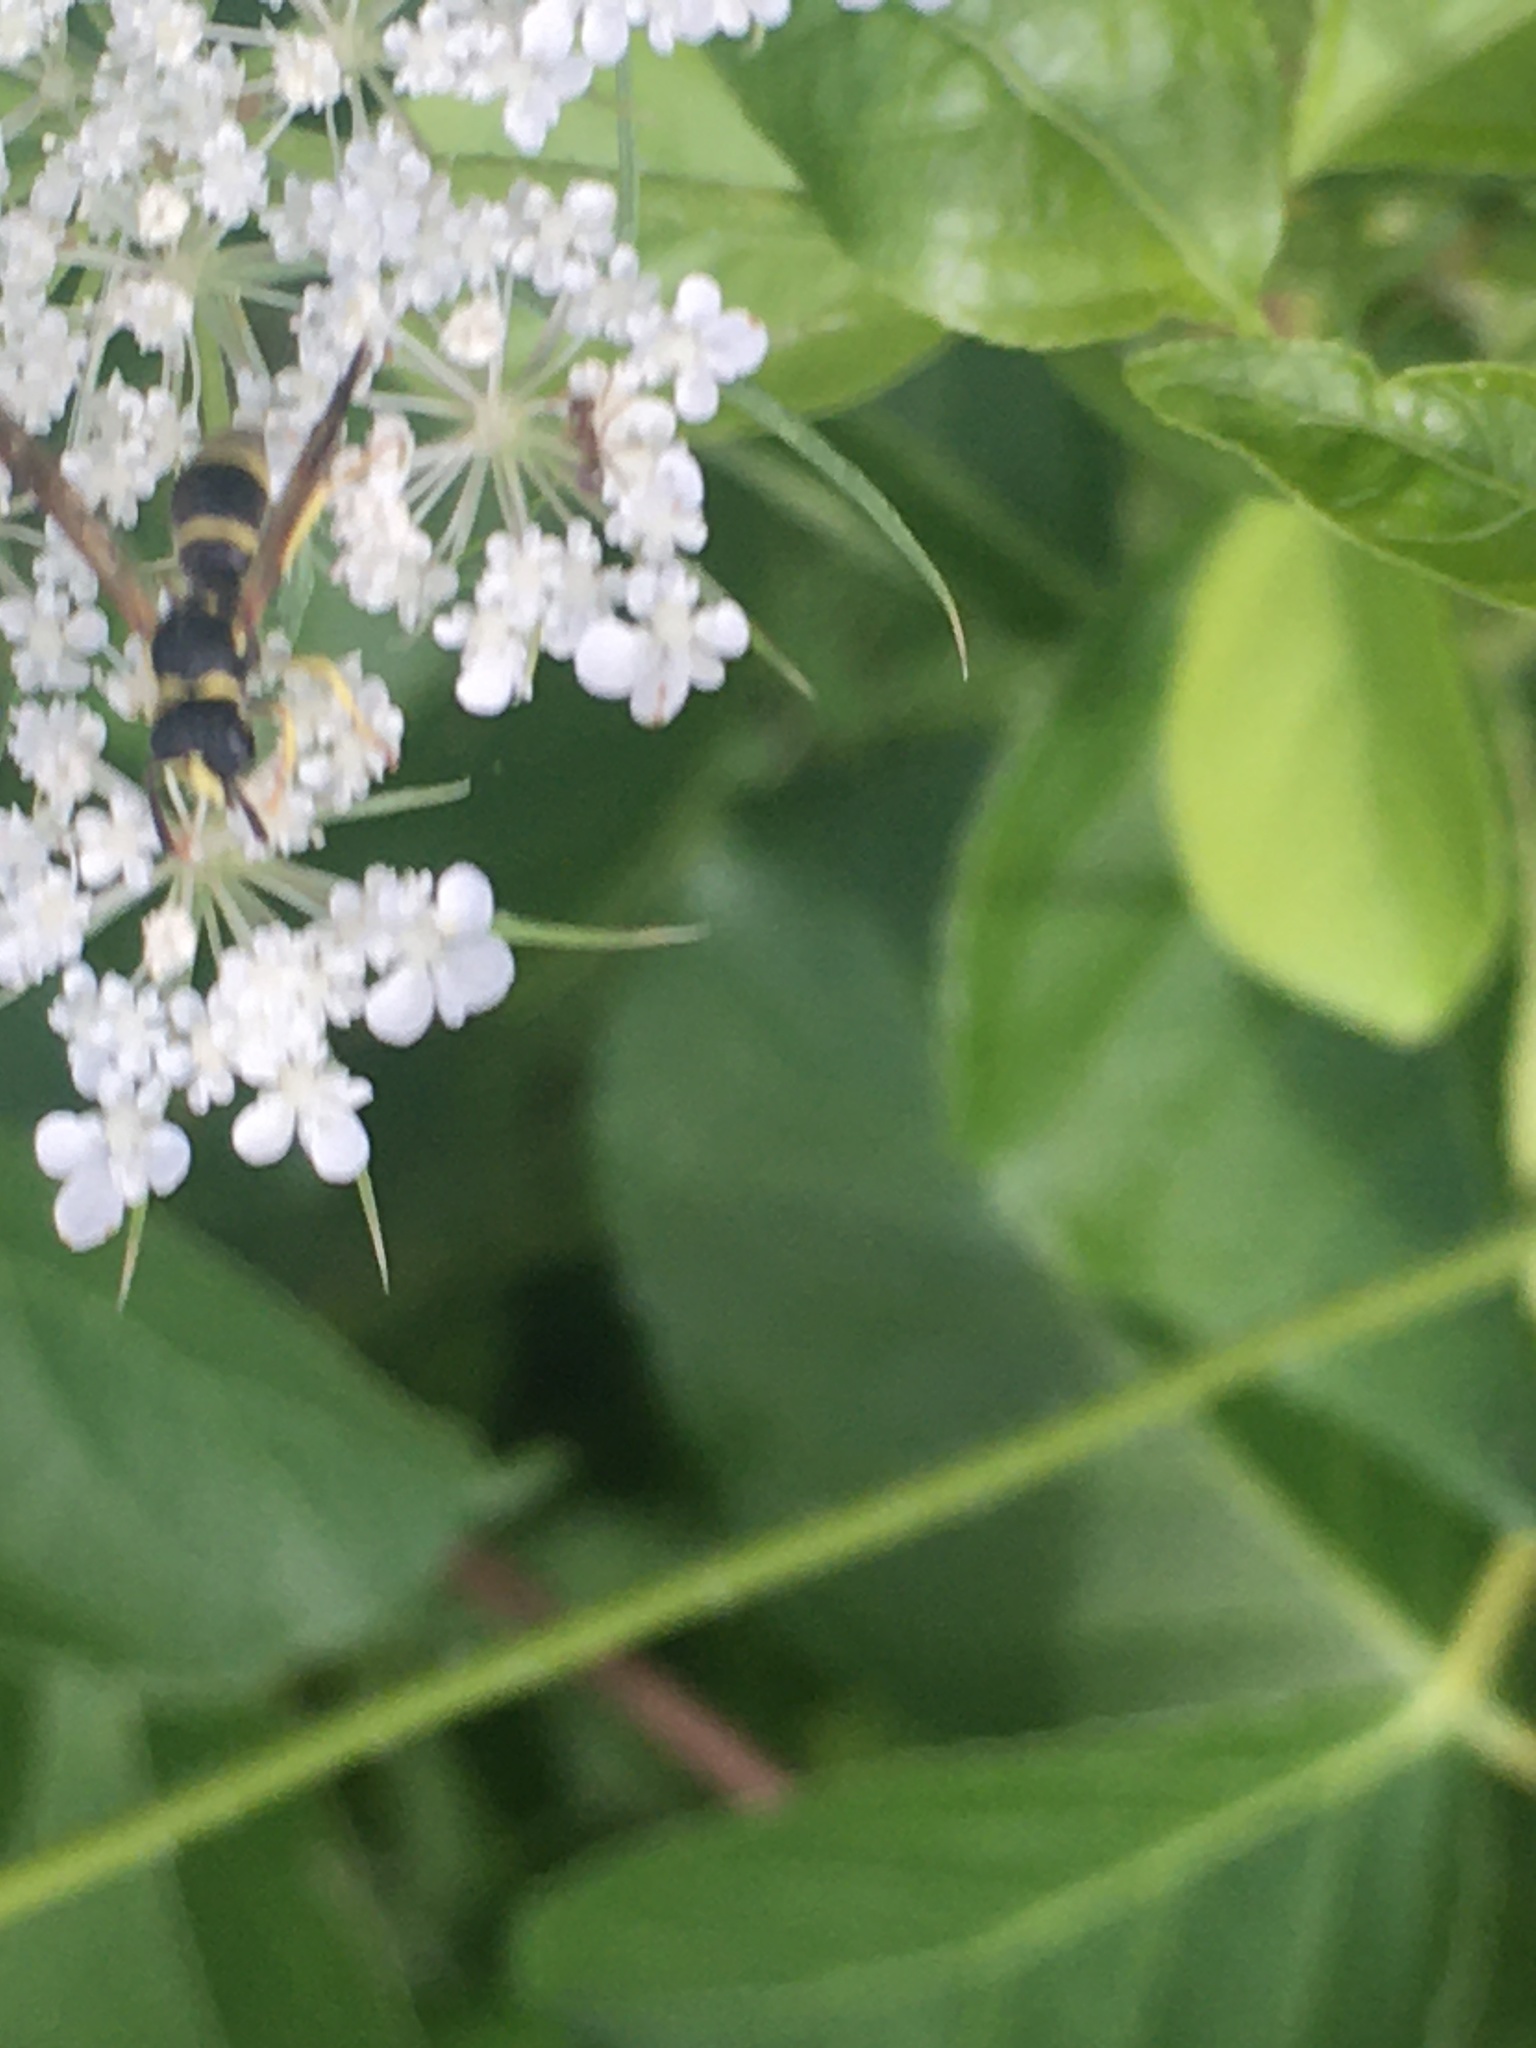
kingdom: Animalia
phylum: Arthropoda
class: Insecta
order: Hymenoptera
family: Vespidae
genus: Ancistrocerus
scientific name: Ancistrocerus adiabatus
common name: Bramble mason wasp
